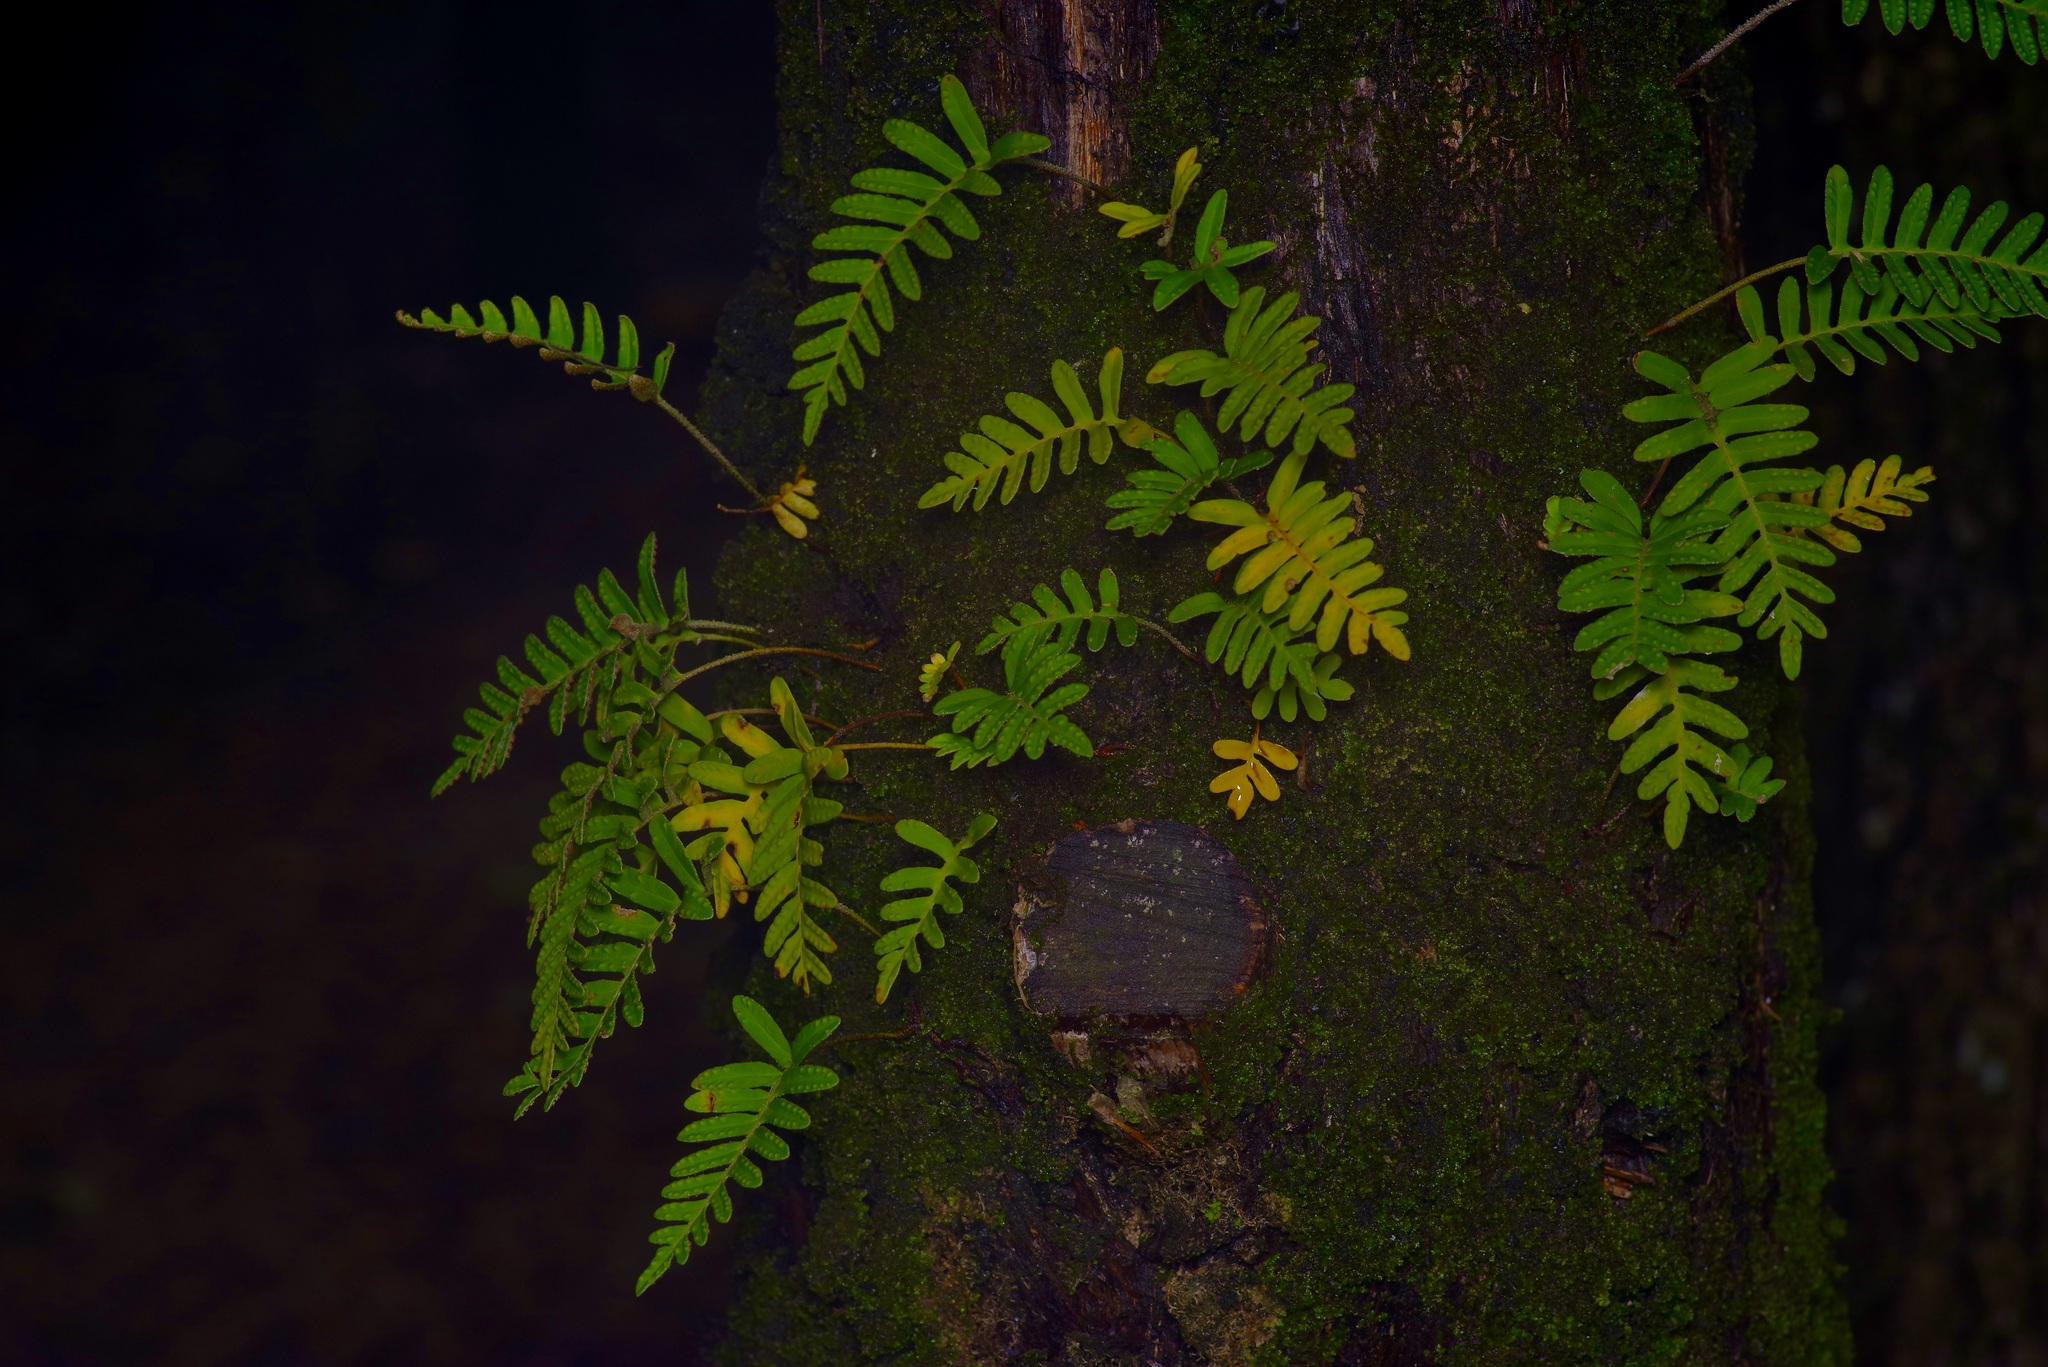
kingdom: Plantae
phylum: Tracheophyta
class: Polypodiopsida
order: Polypodiales
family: Polypodiaceae
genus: Pleopeltis
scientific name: Pleopeltis michauxiana
